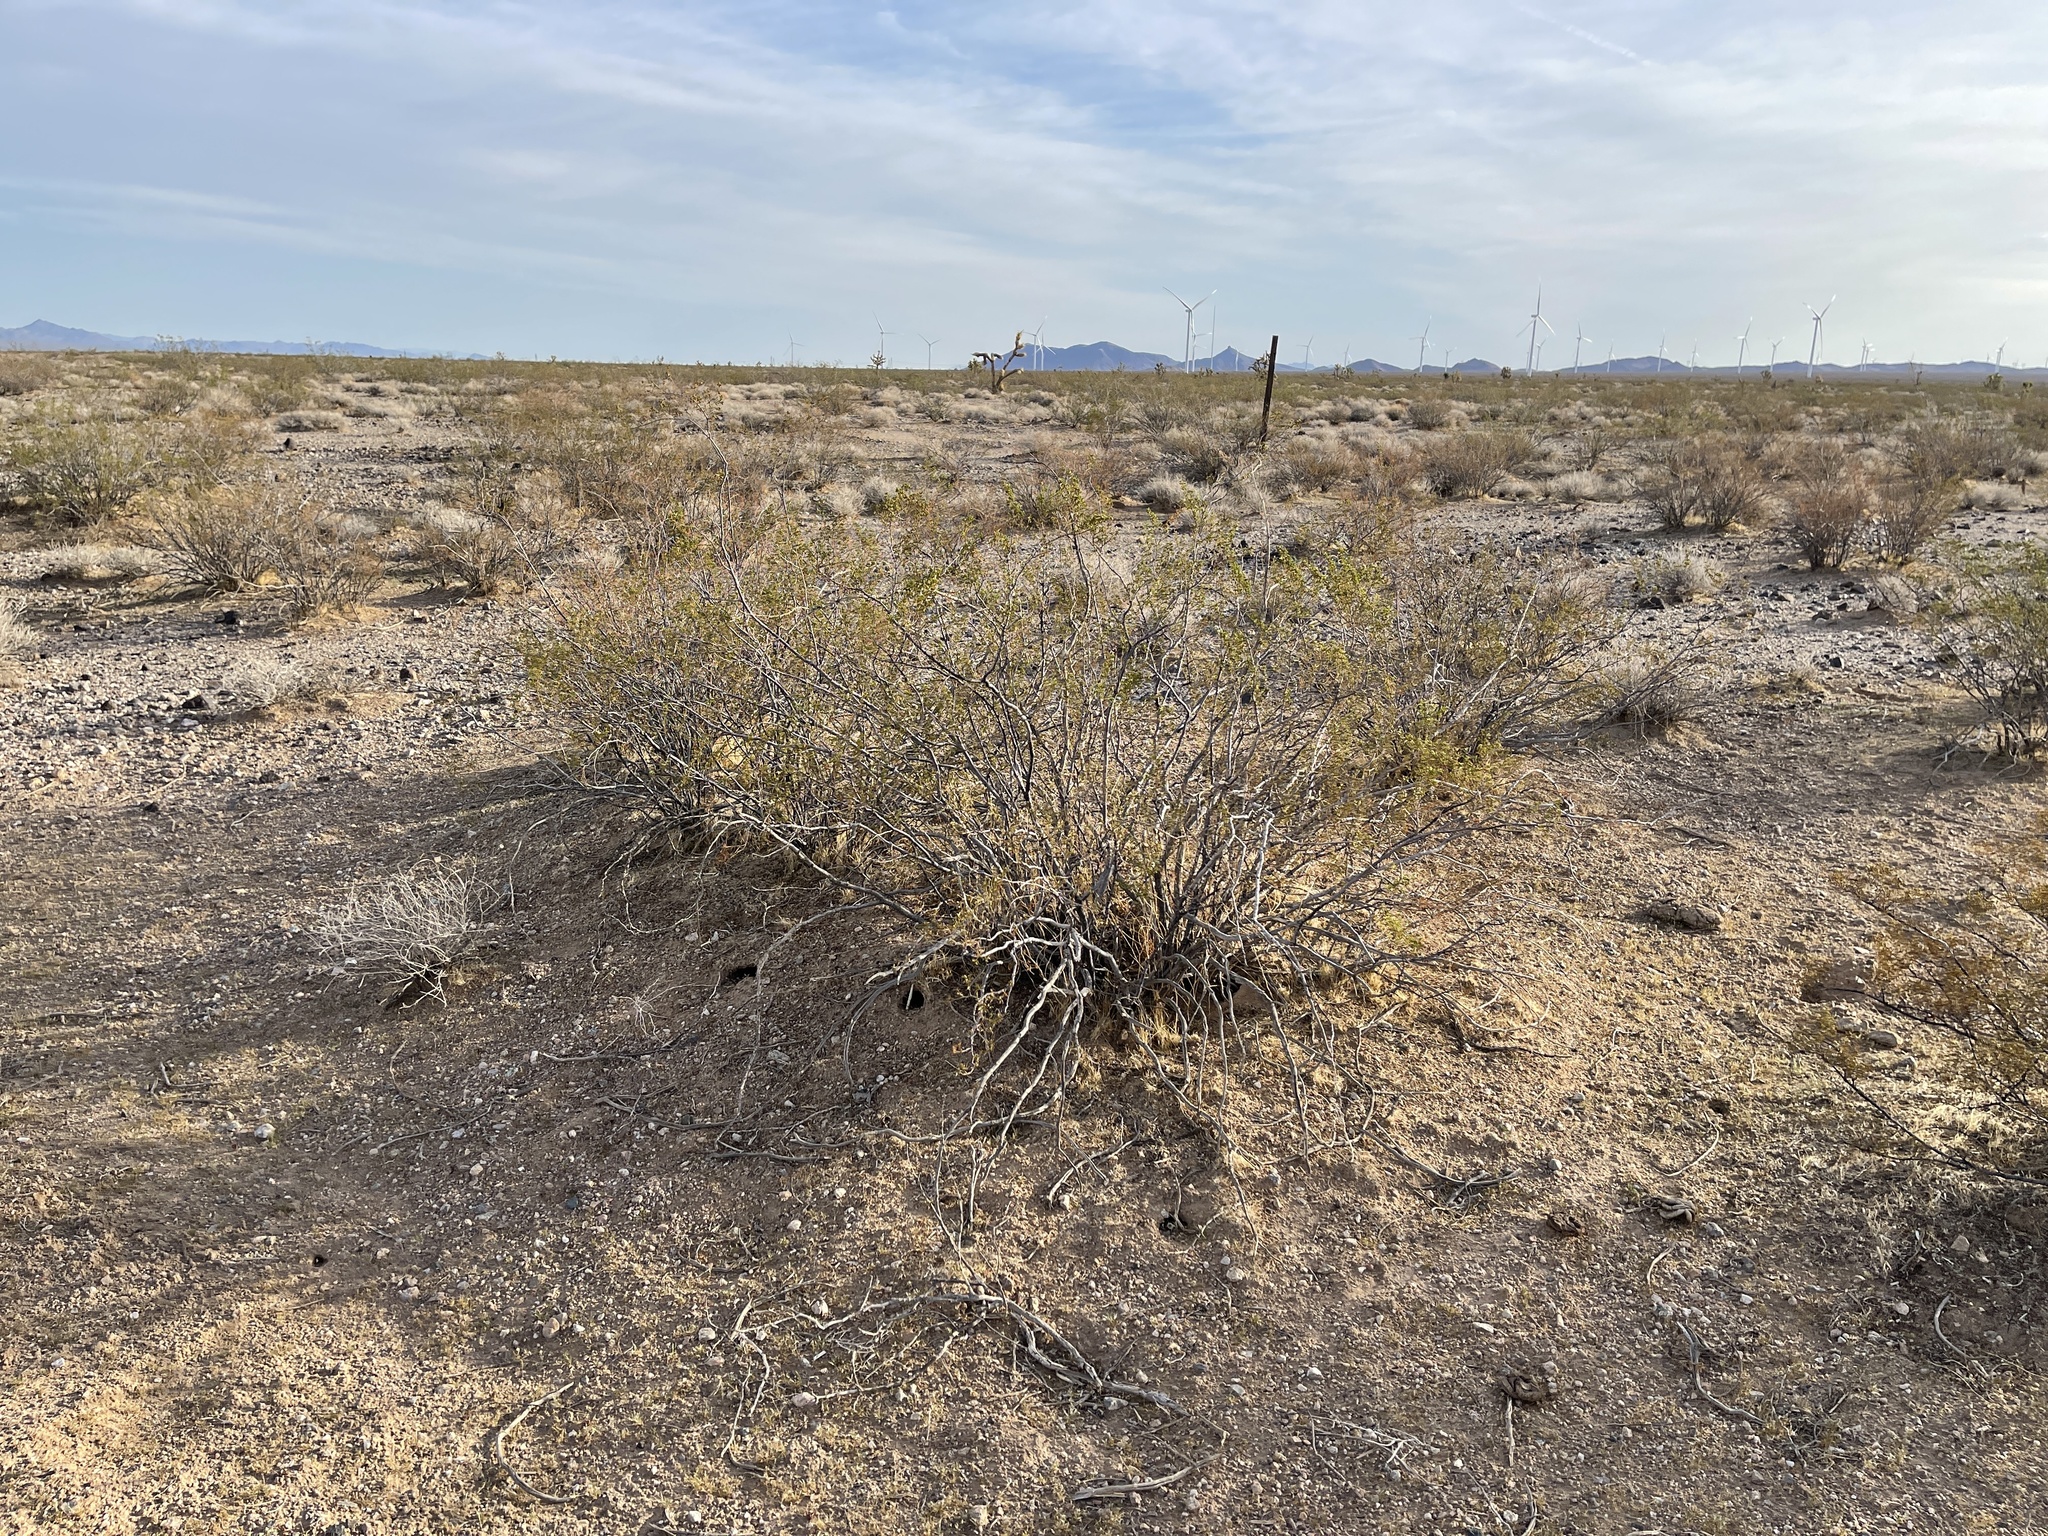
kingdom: Plantae
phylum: Tracheophyta
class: Magnoliopsida
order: Zygophyllales
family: Zygophyllaceae
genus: Larrea
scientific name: Larrea tridentata
